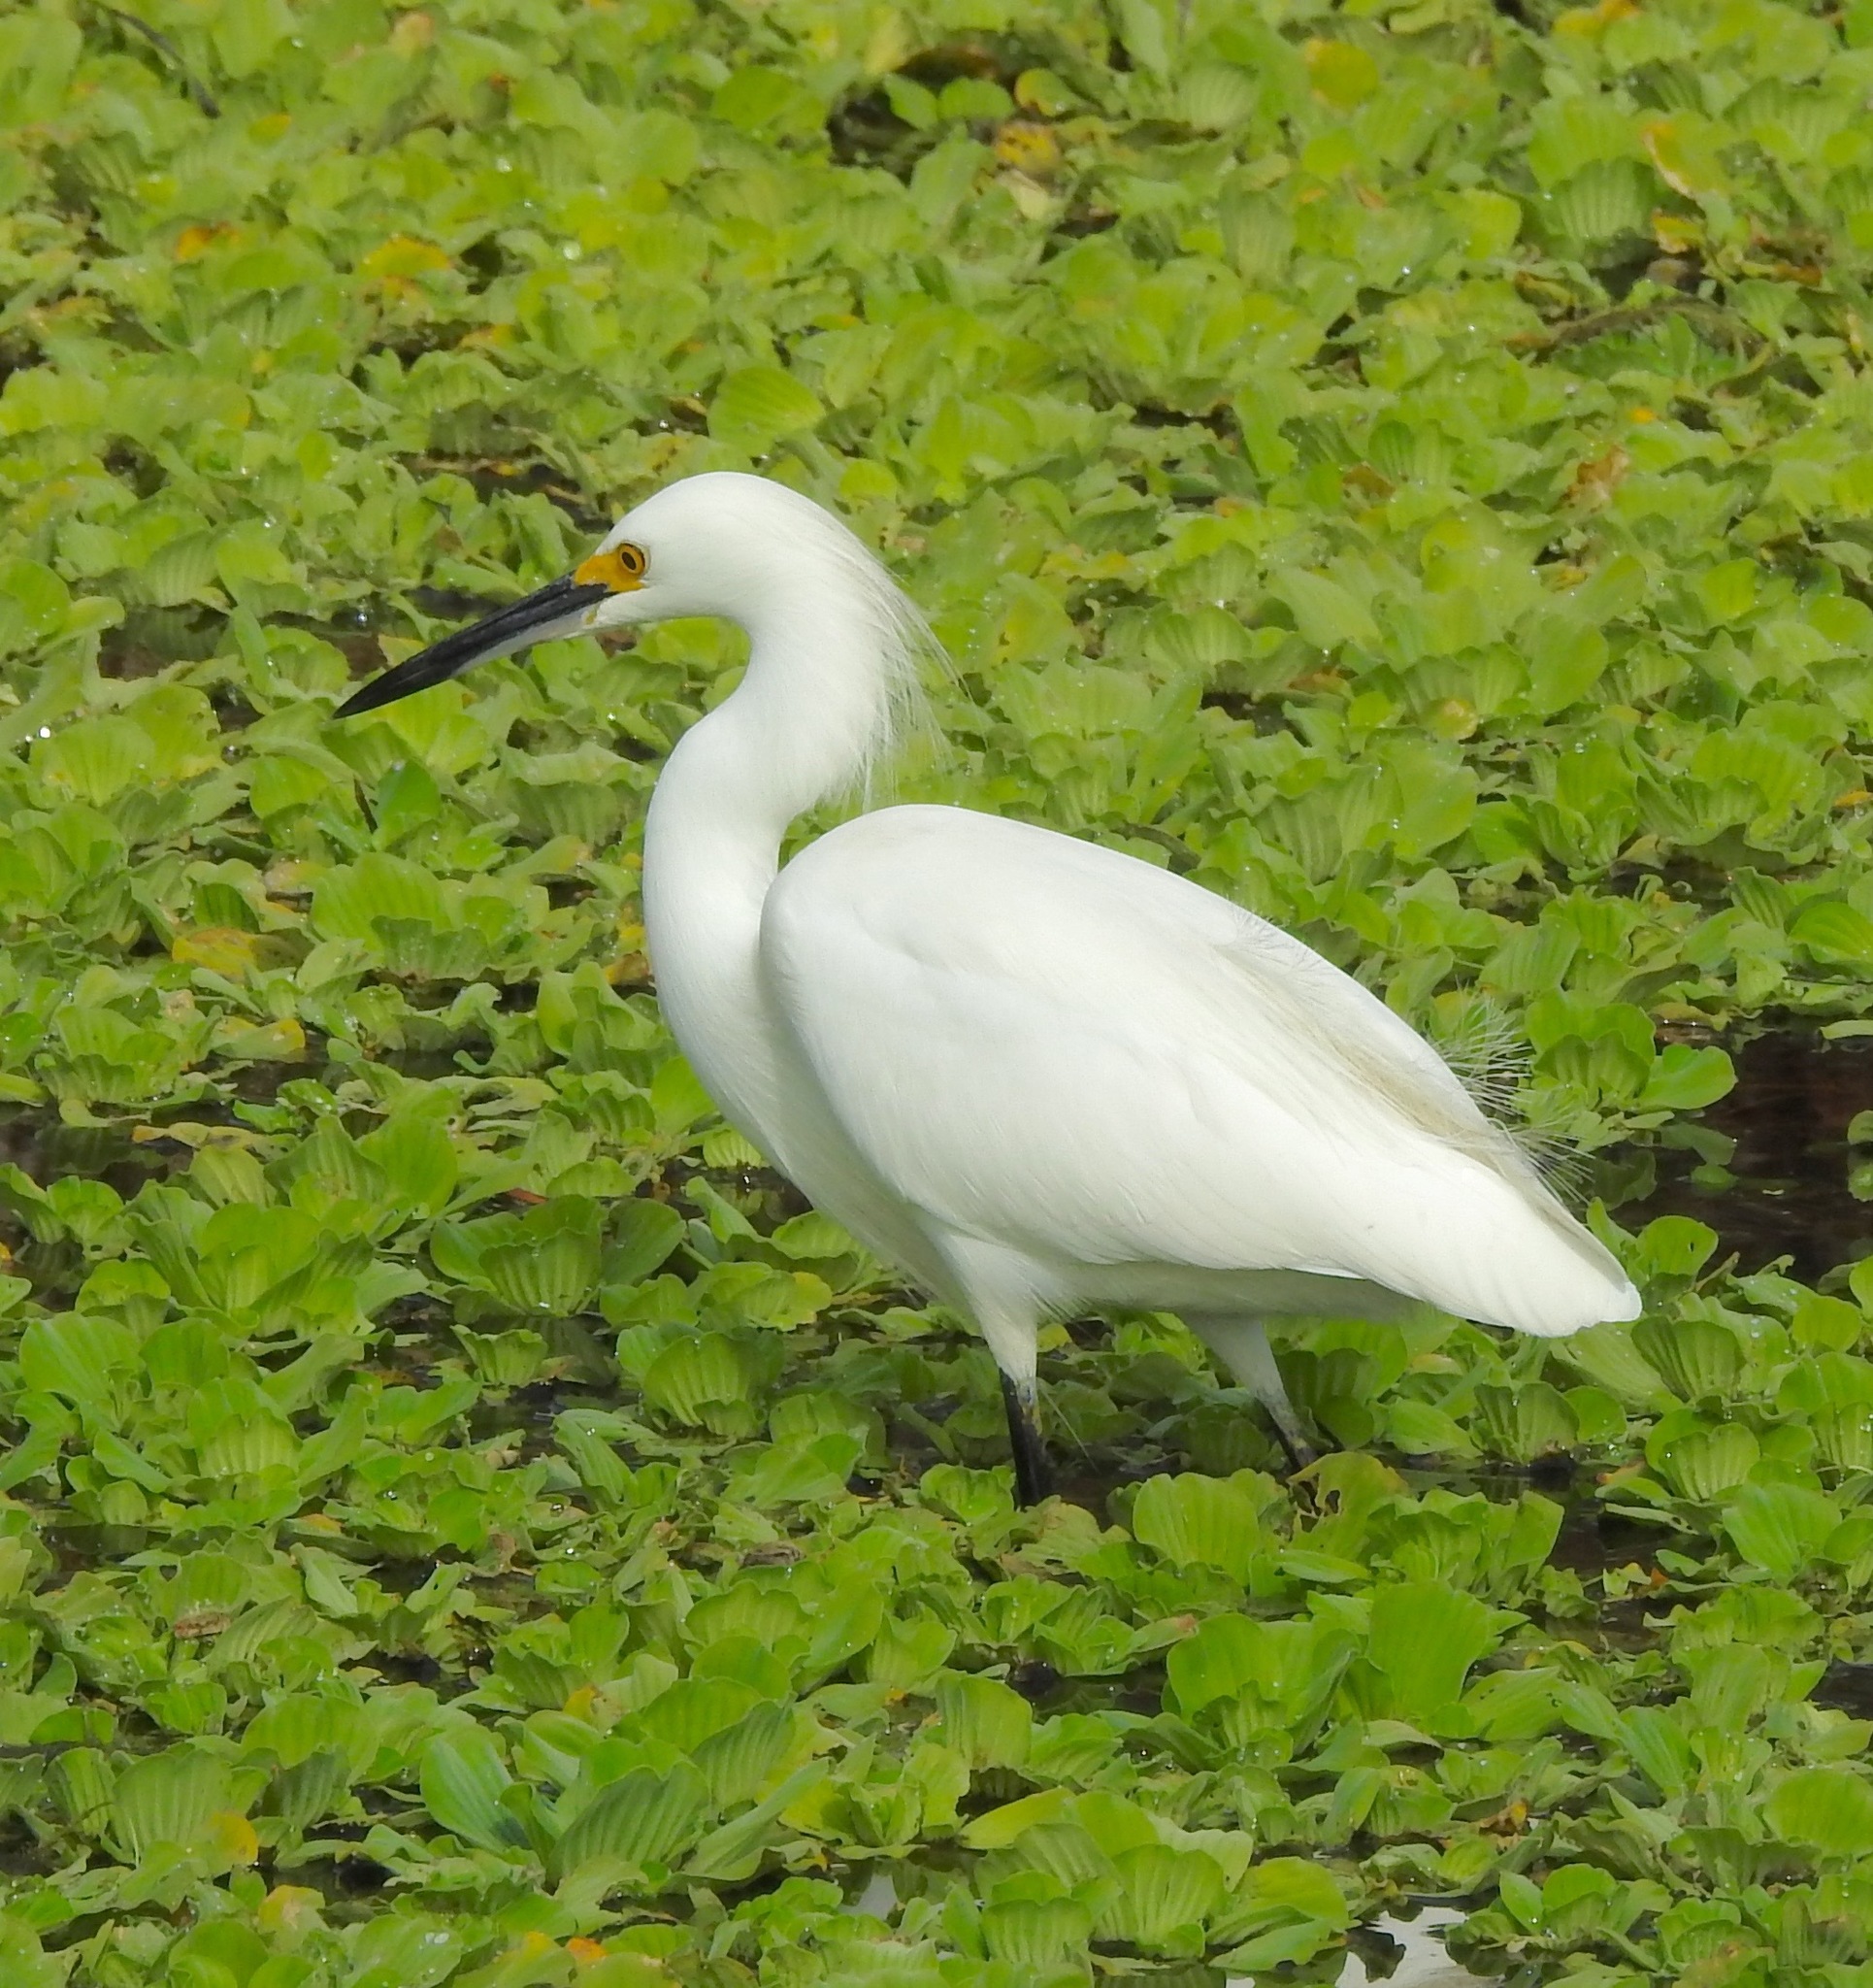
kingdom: Animalia
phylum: Chordata
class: Aves
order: Pelecaniformes
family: Ardeidae
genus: Egretta
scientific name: Egretta thula
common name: Snowy egret
